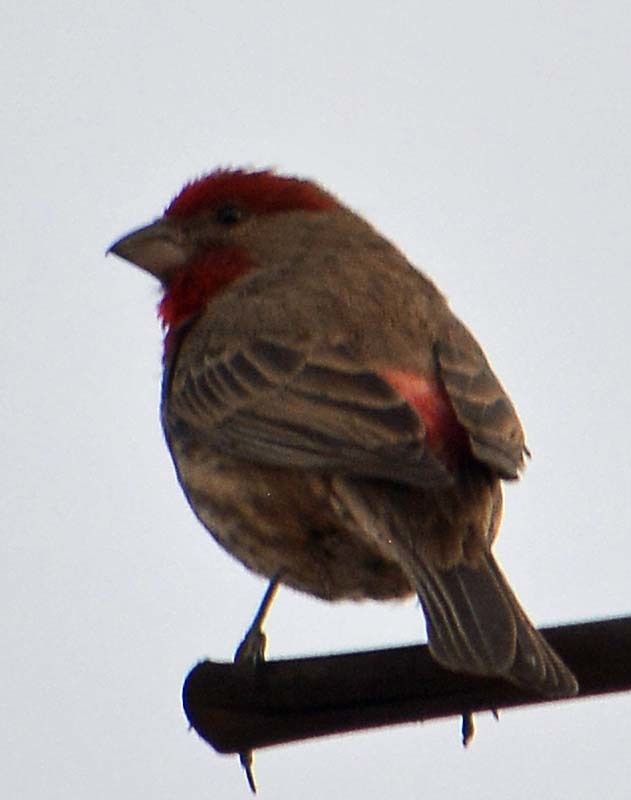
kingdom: Animalia
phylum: Chordata
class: Aves
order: Passeriformes
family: Fringillidae
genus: Haemorhous
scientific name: Haemorhous mexicanus
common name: House finch
